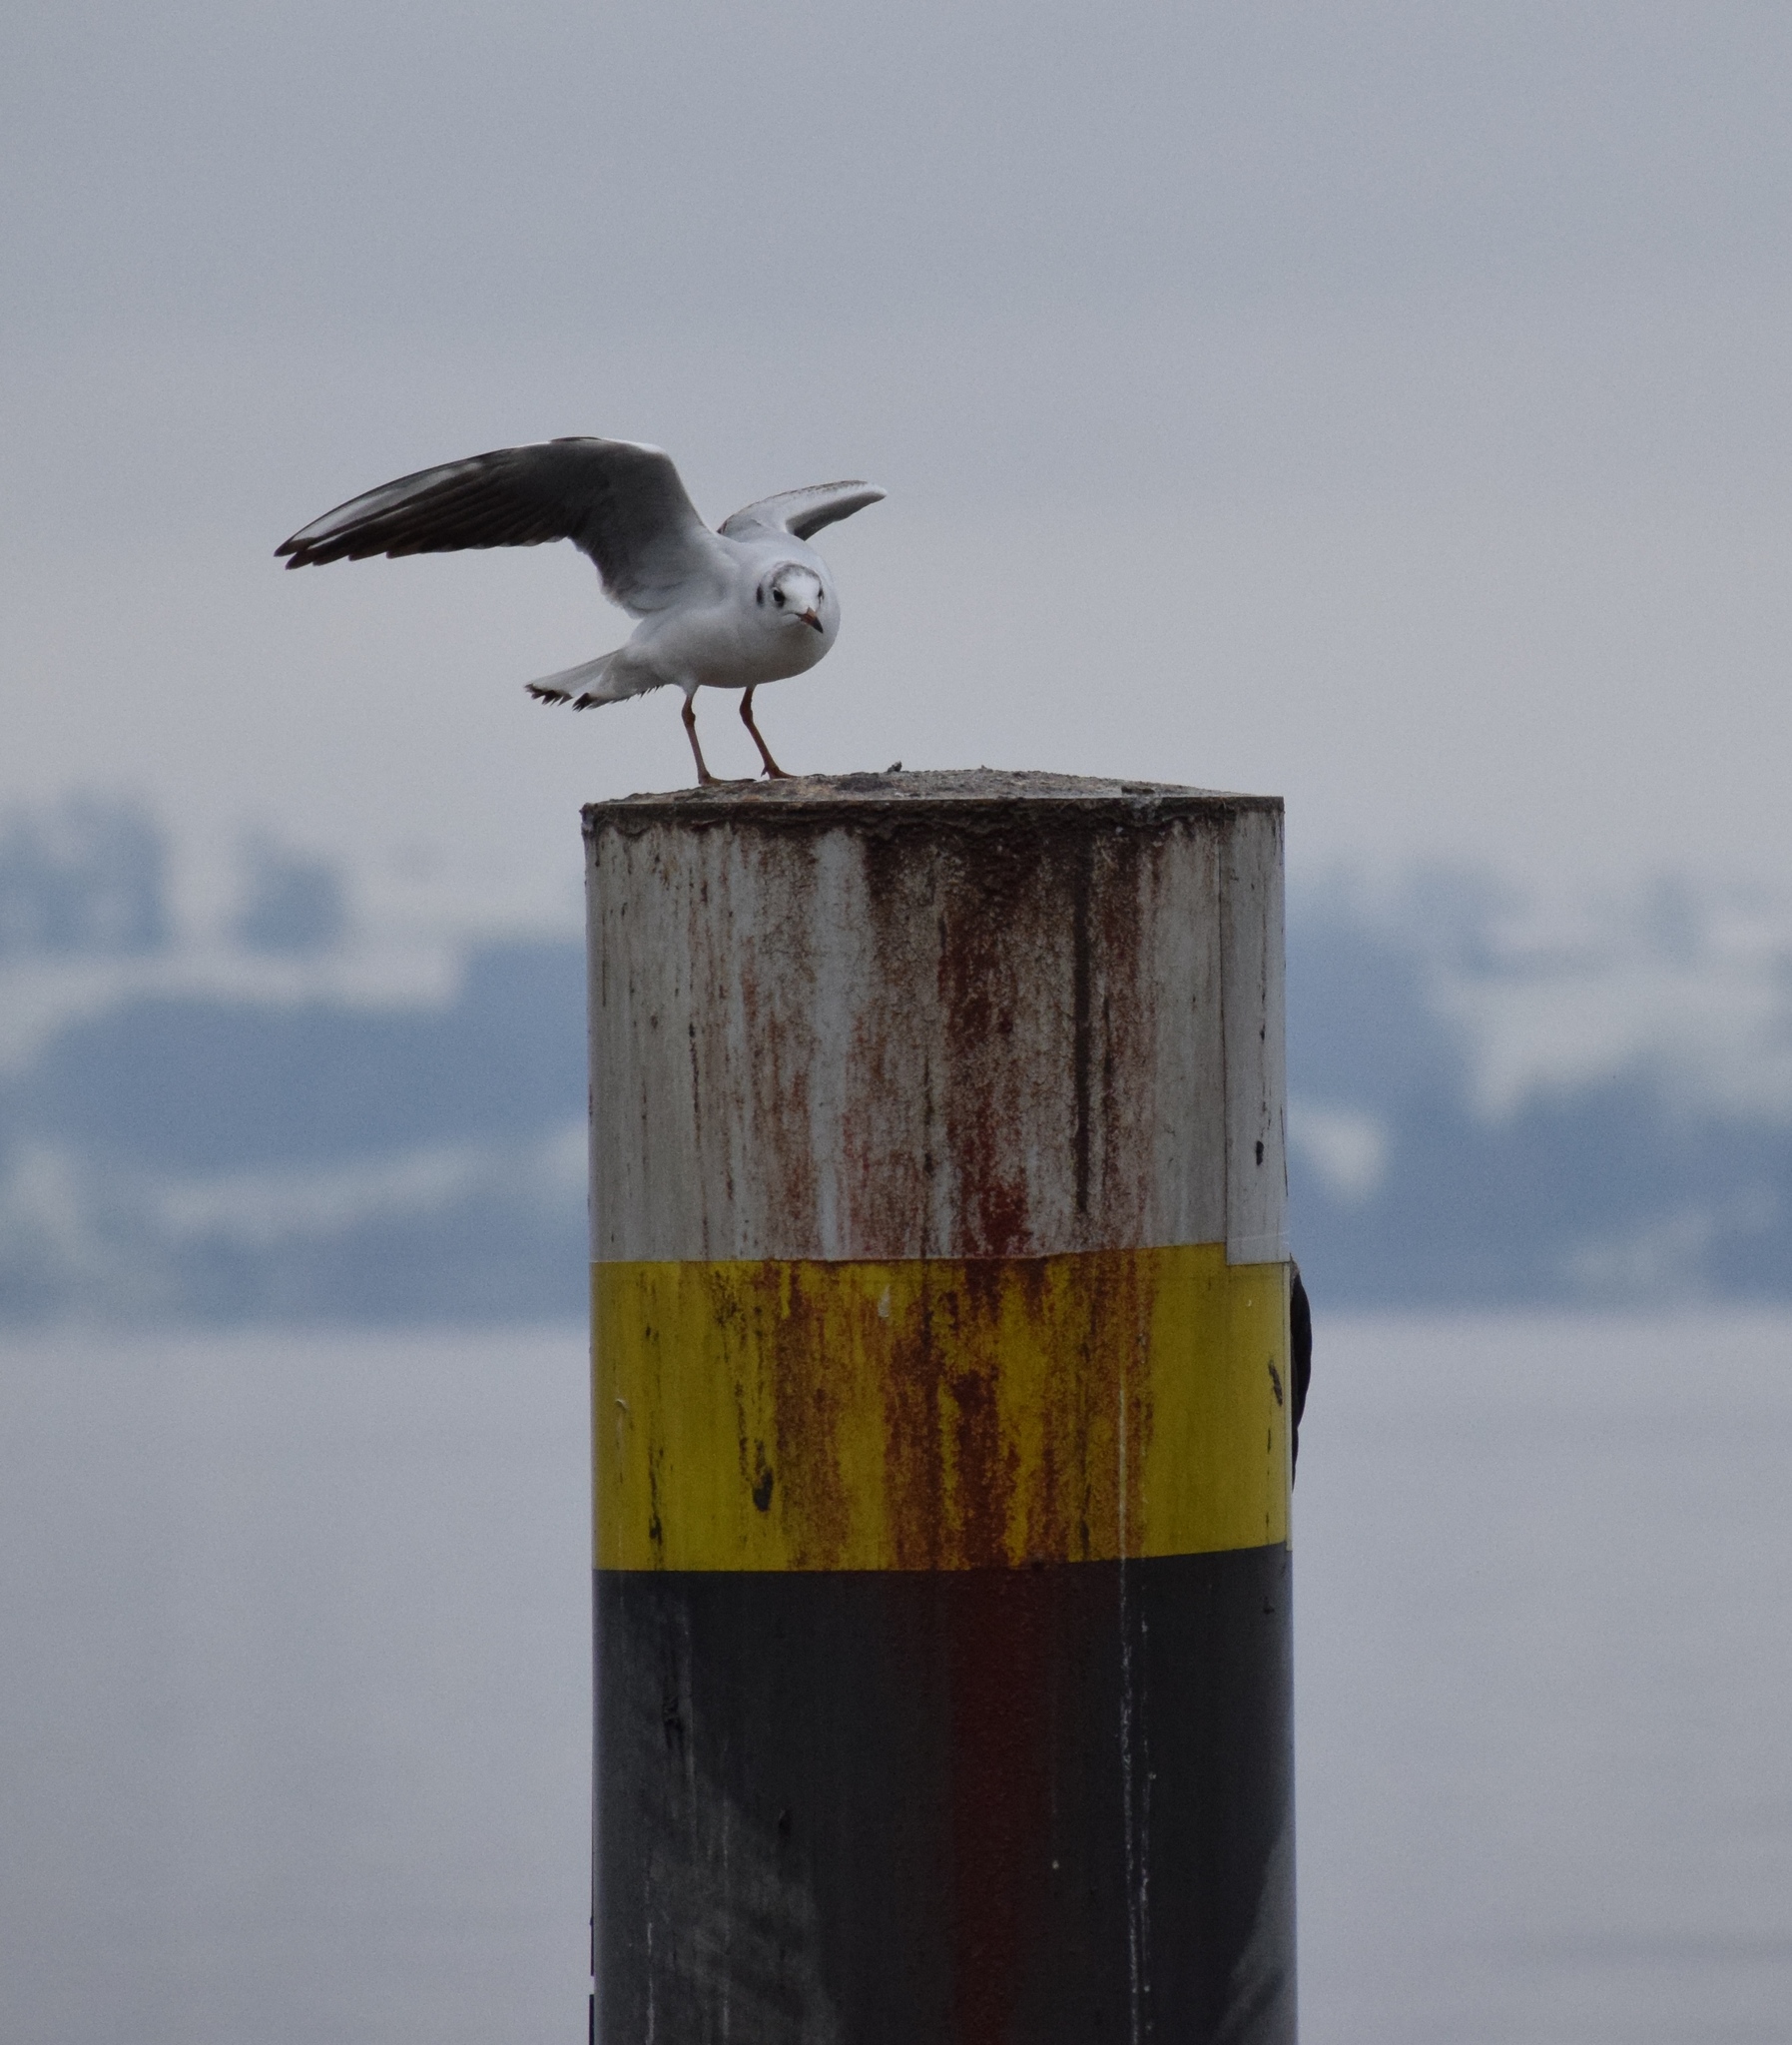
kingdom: Animalia
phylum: Chordata
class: Aves
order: Charadriiformes
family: Laridae
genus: Chroicocephalus
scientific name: Chroicocephalus ridibundus
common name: Black-headed gull
